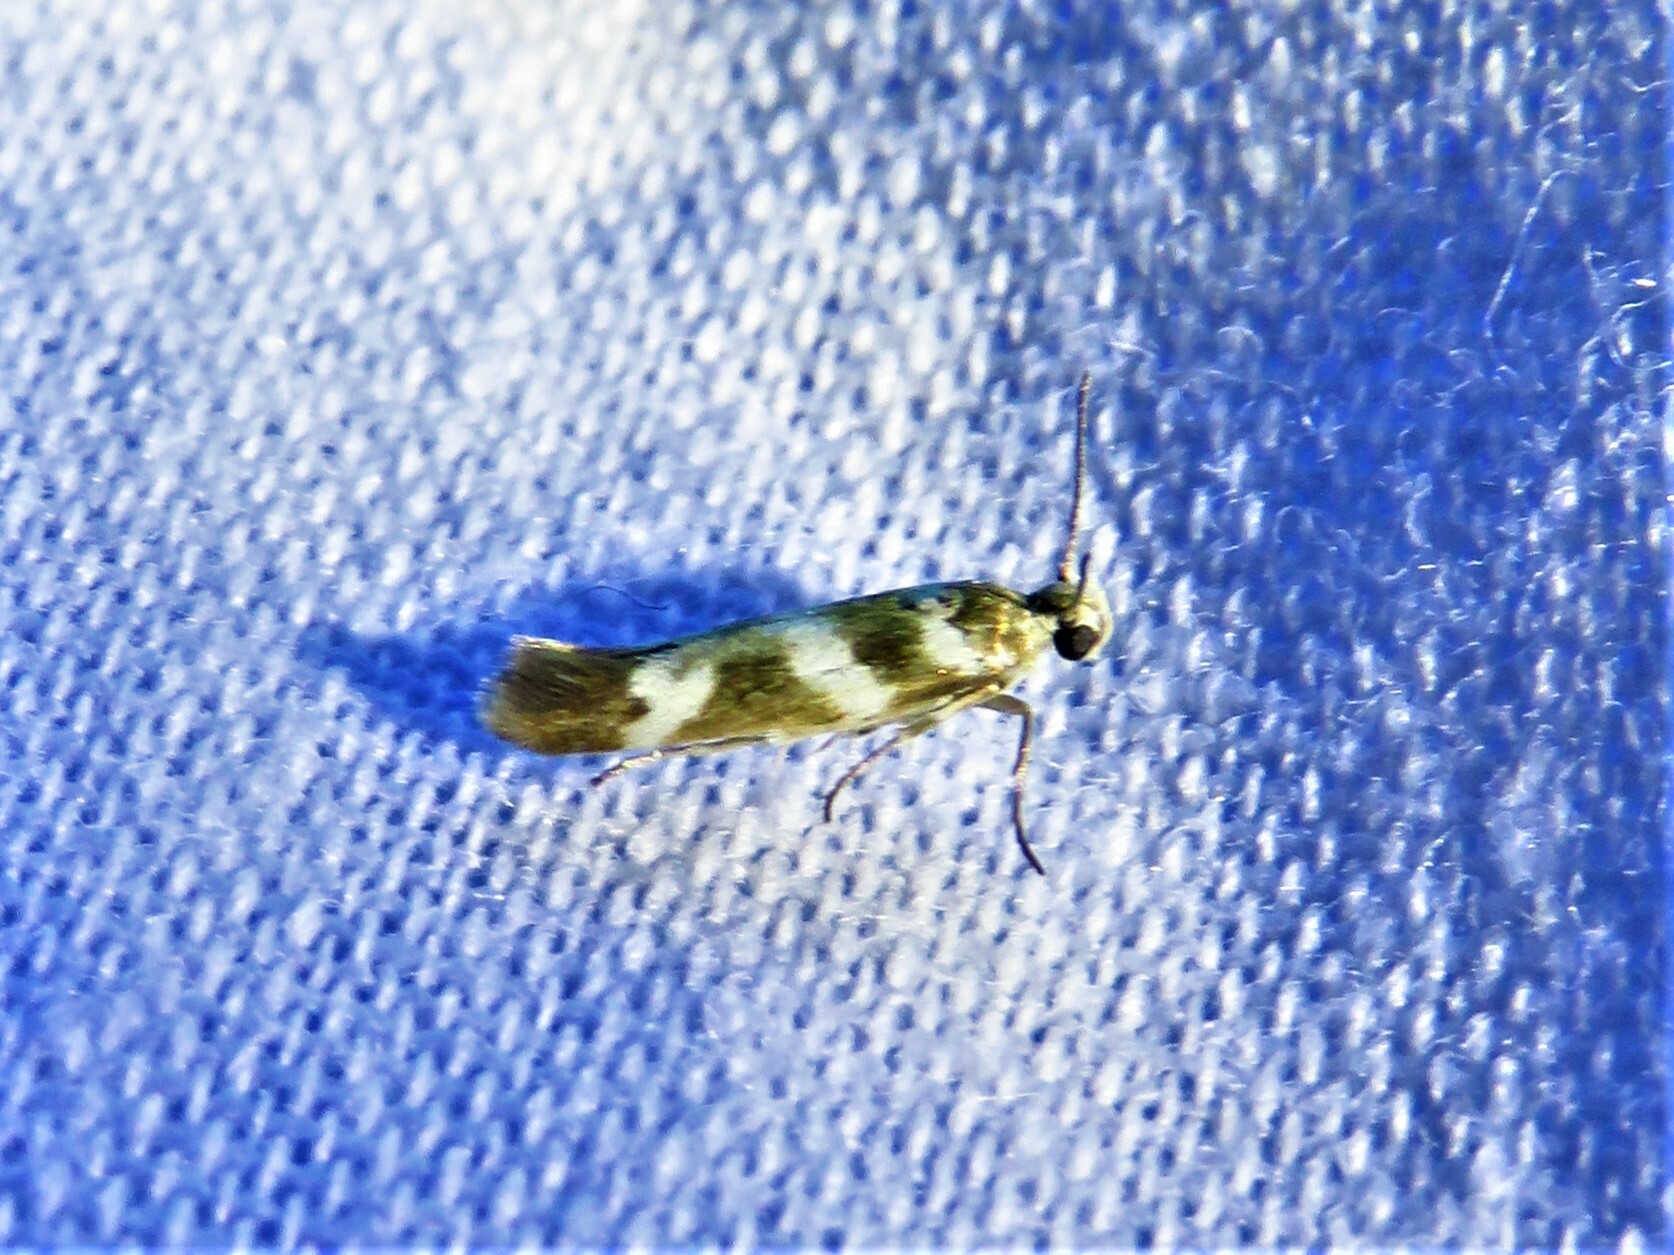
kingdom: Animalia
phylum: Arthropoda
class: Insecta
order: Lepidoptera
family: Scythrididae
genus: Scythris
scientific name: Scythris trivinctella
